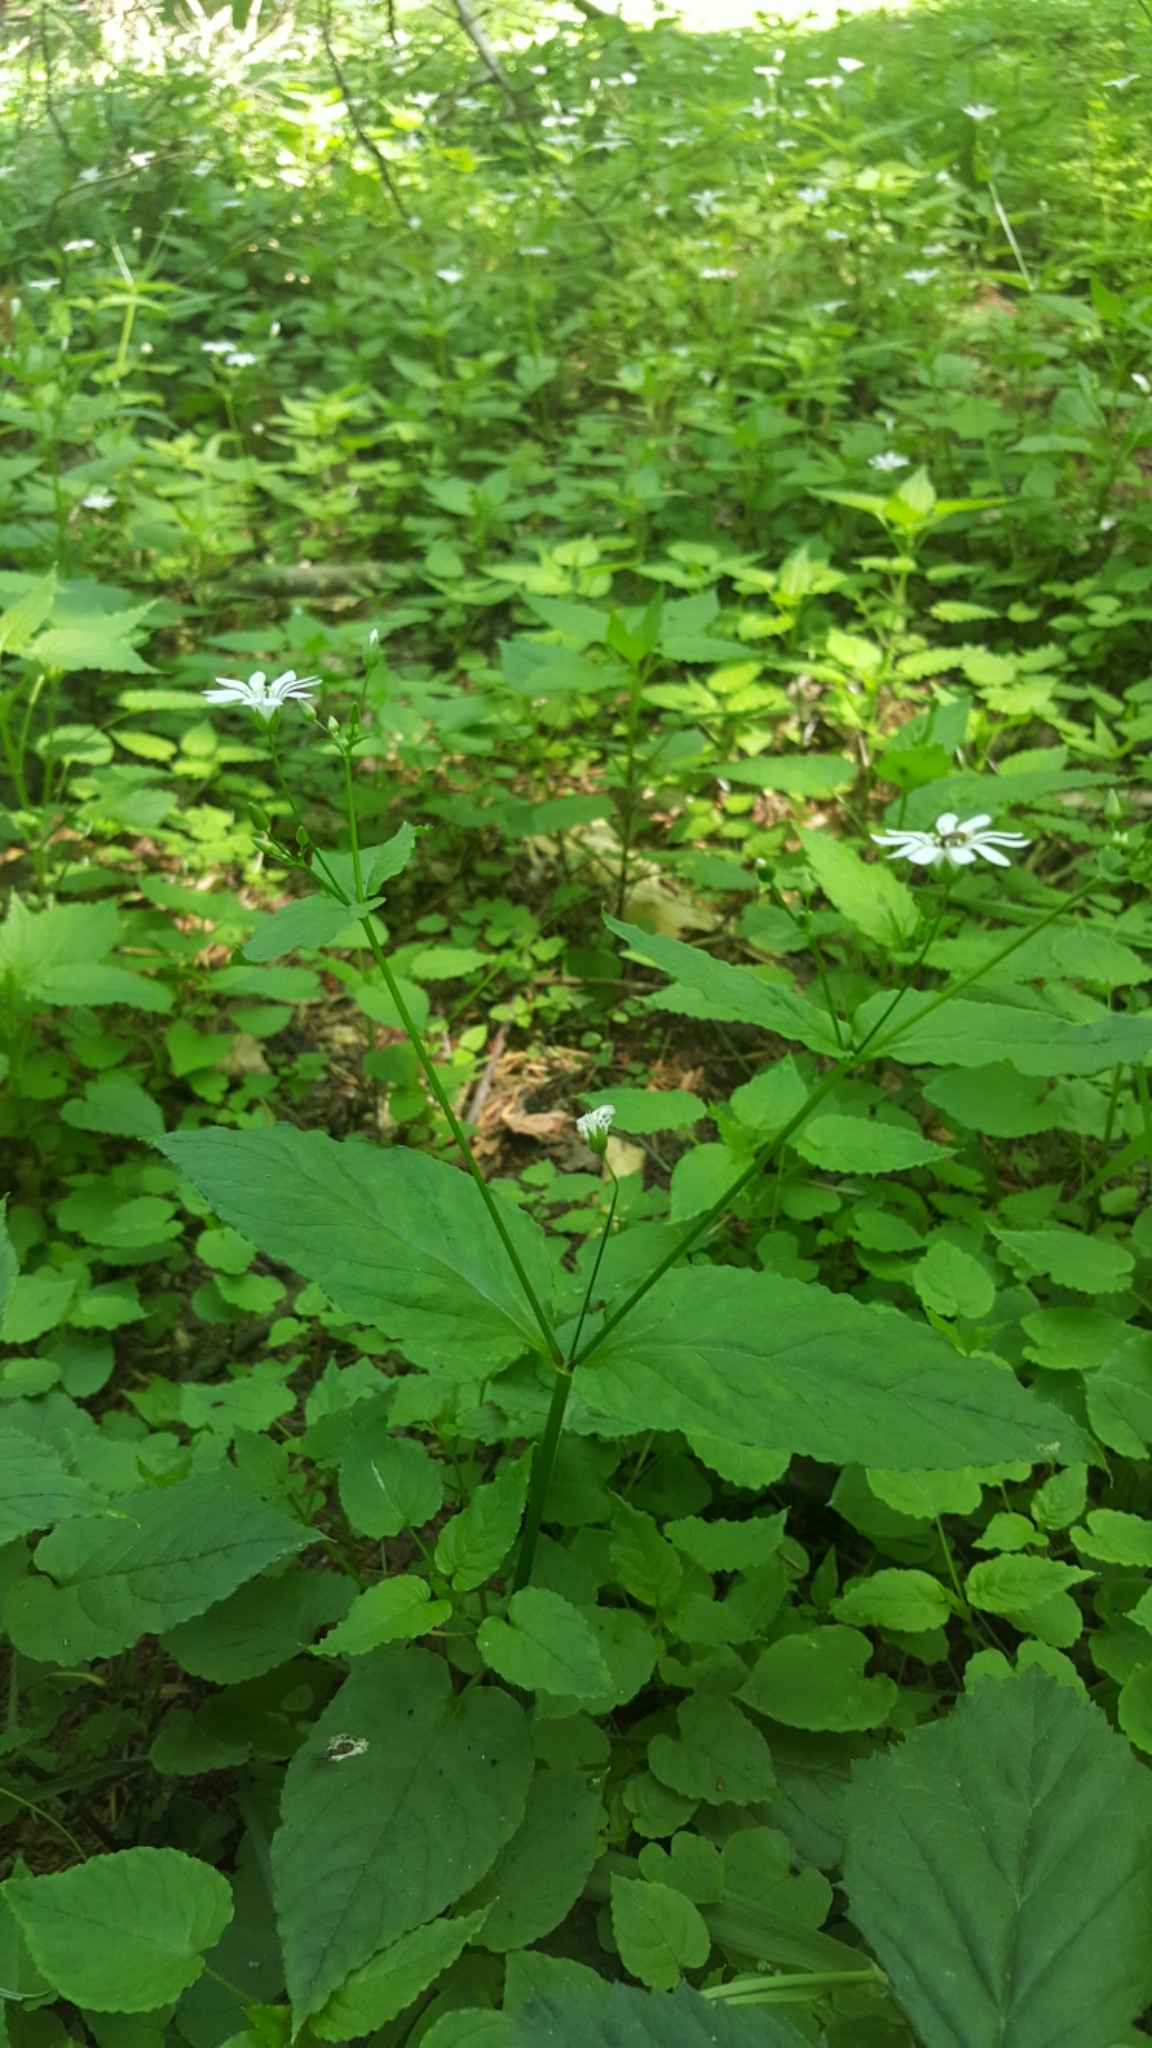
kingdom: Plantae
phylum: Tracheophyta
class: Magnoliopsida
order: Caryophyllales
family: Caryophyllaceae
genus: Stellaria
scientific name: Stellaria nemorum
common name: Wood stitchwort
